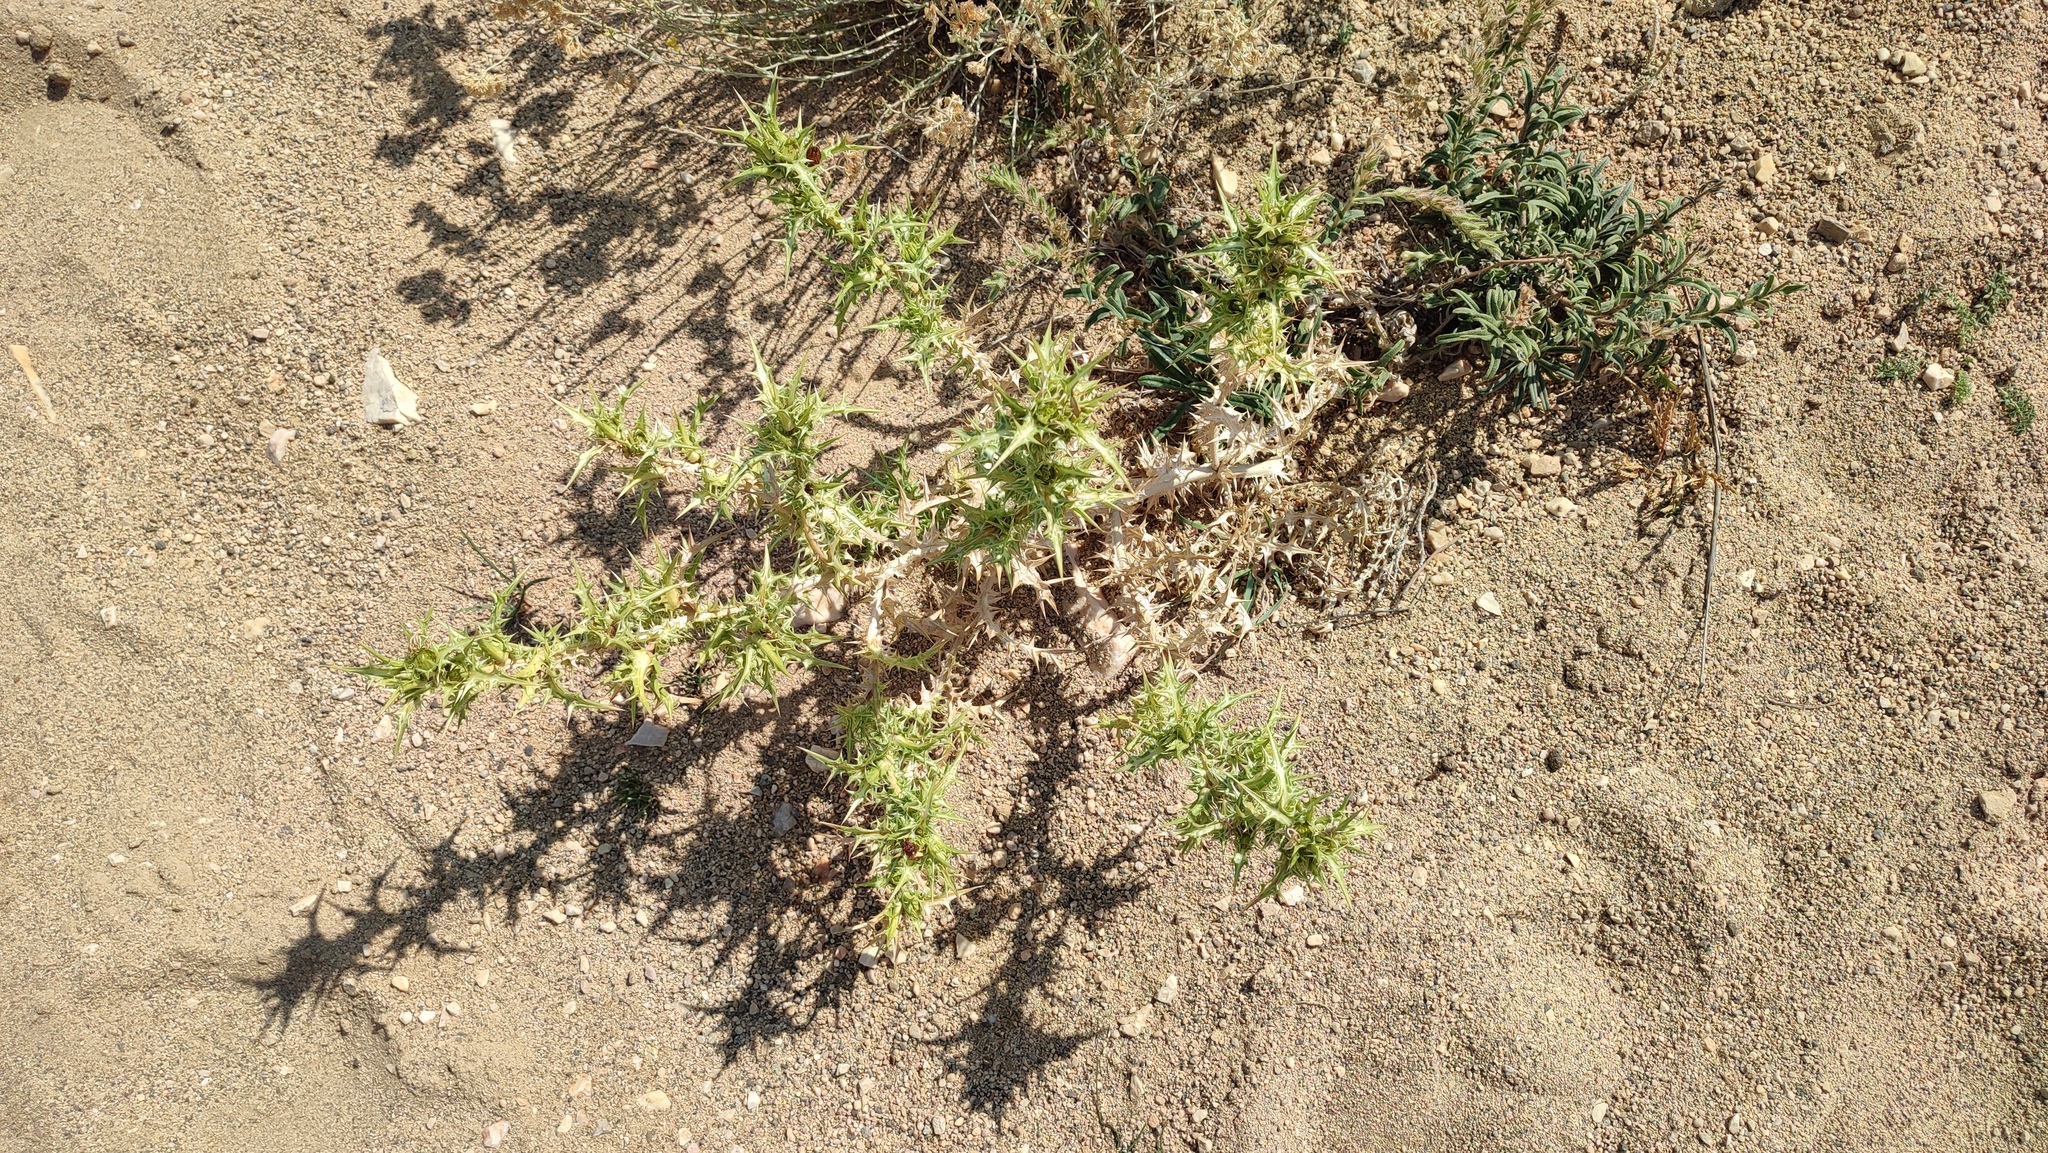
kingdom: Plantae
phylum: Tracheophyta
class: Magnoliopsida
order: Asterales
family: Asteraceae
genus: Scolymus
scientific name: Scolymus hispanicus
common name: Golden thistle
